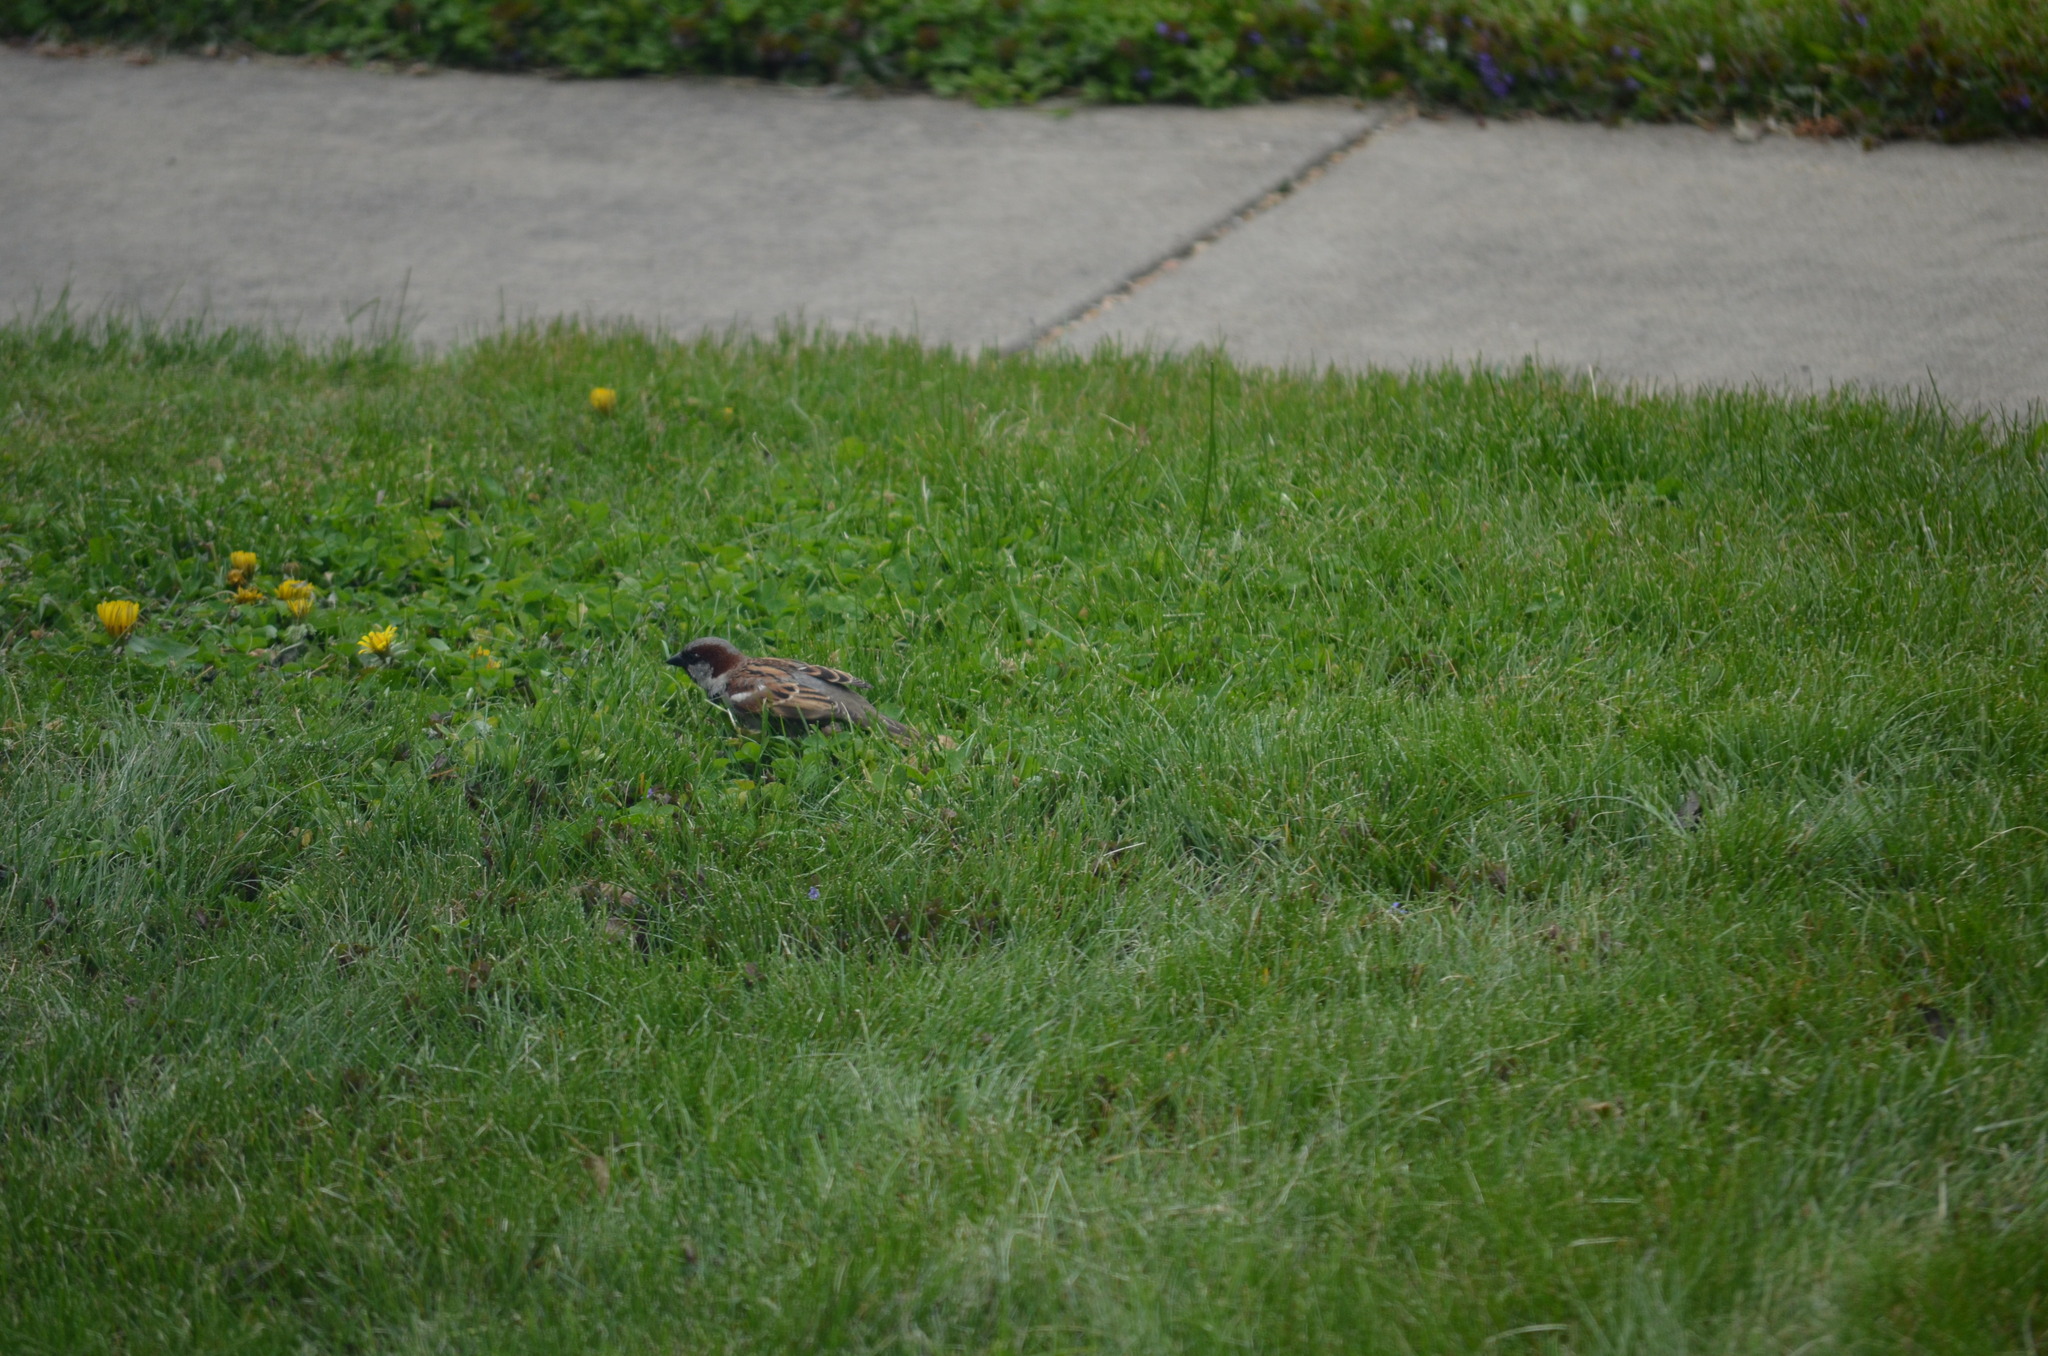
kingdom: Animalia
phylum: Chordata
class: Aves
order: Passeriformes
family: Passeridae
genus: Passer
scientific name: Passer domesticus
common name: House sparrow
